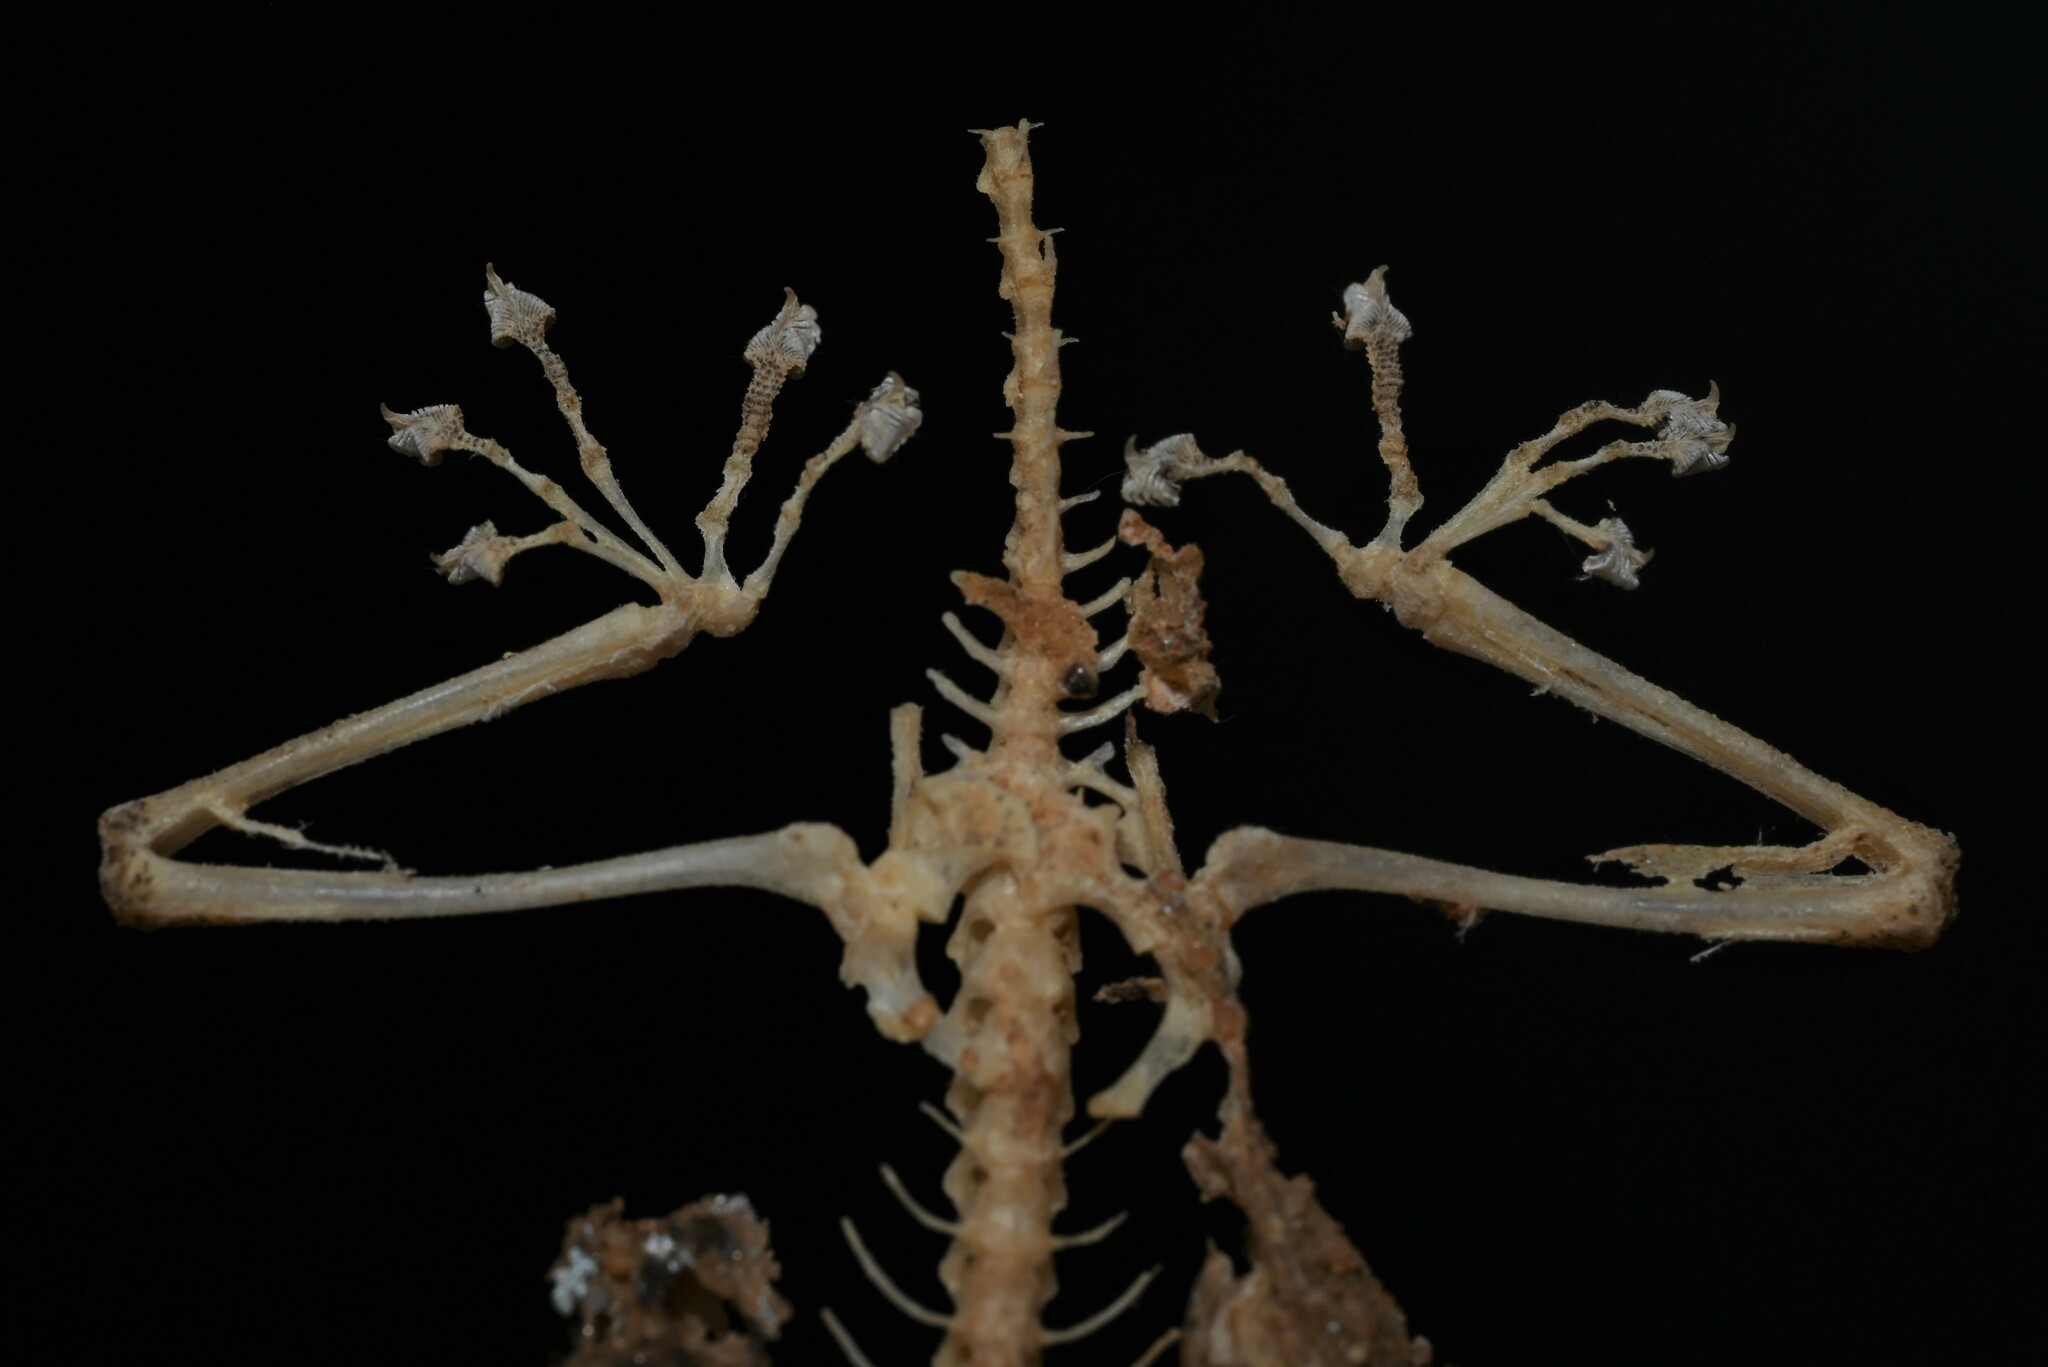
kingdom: Animalia
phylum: Chordata
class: Squamata
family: Phyllodactylidae
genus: Ptyodactylus
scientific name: Ptyodactylus hasselquistii
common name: Hasselquist’s fan-footed gecko
